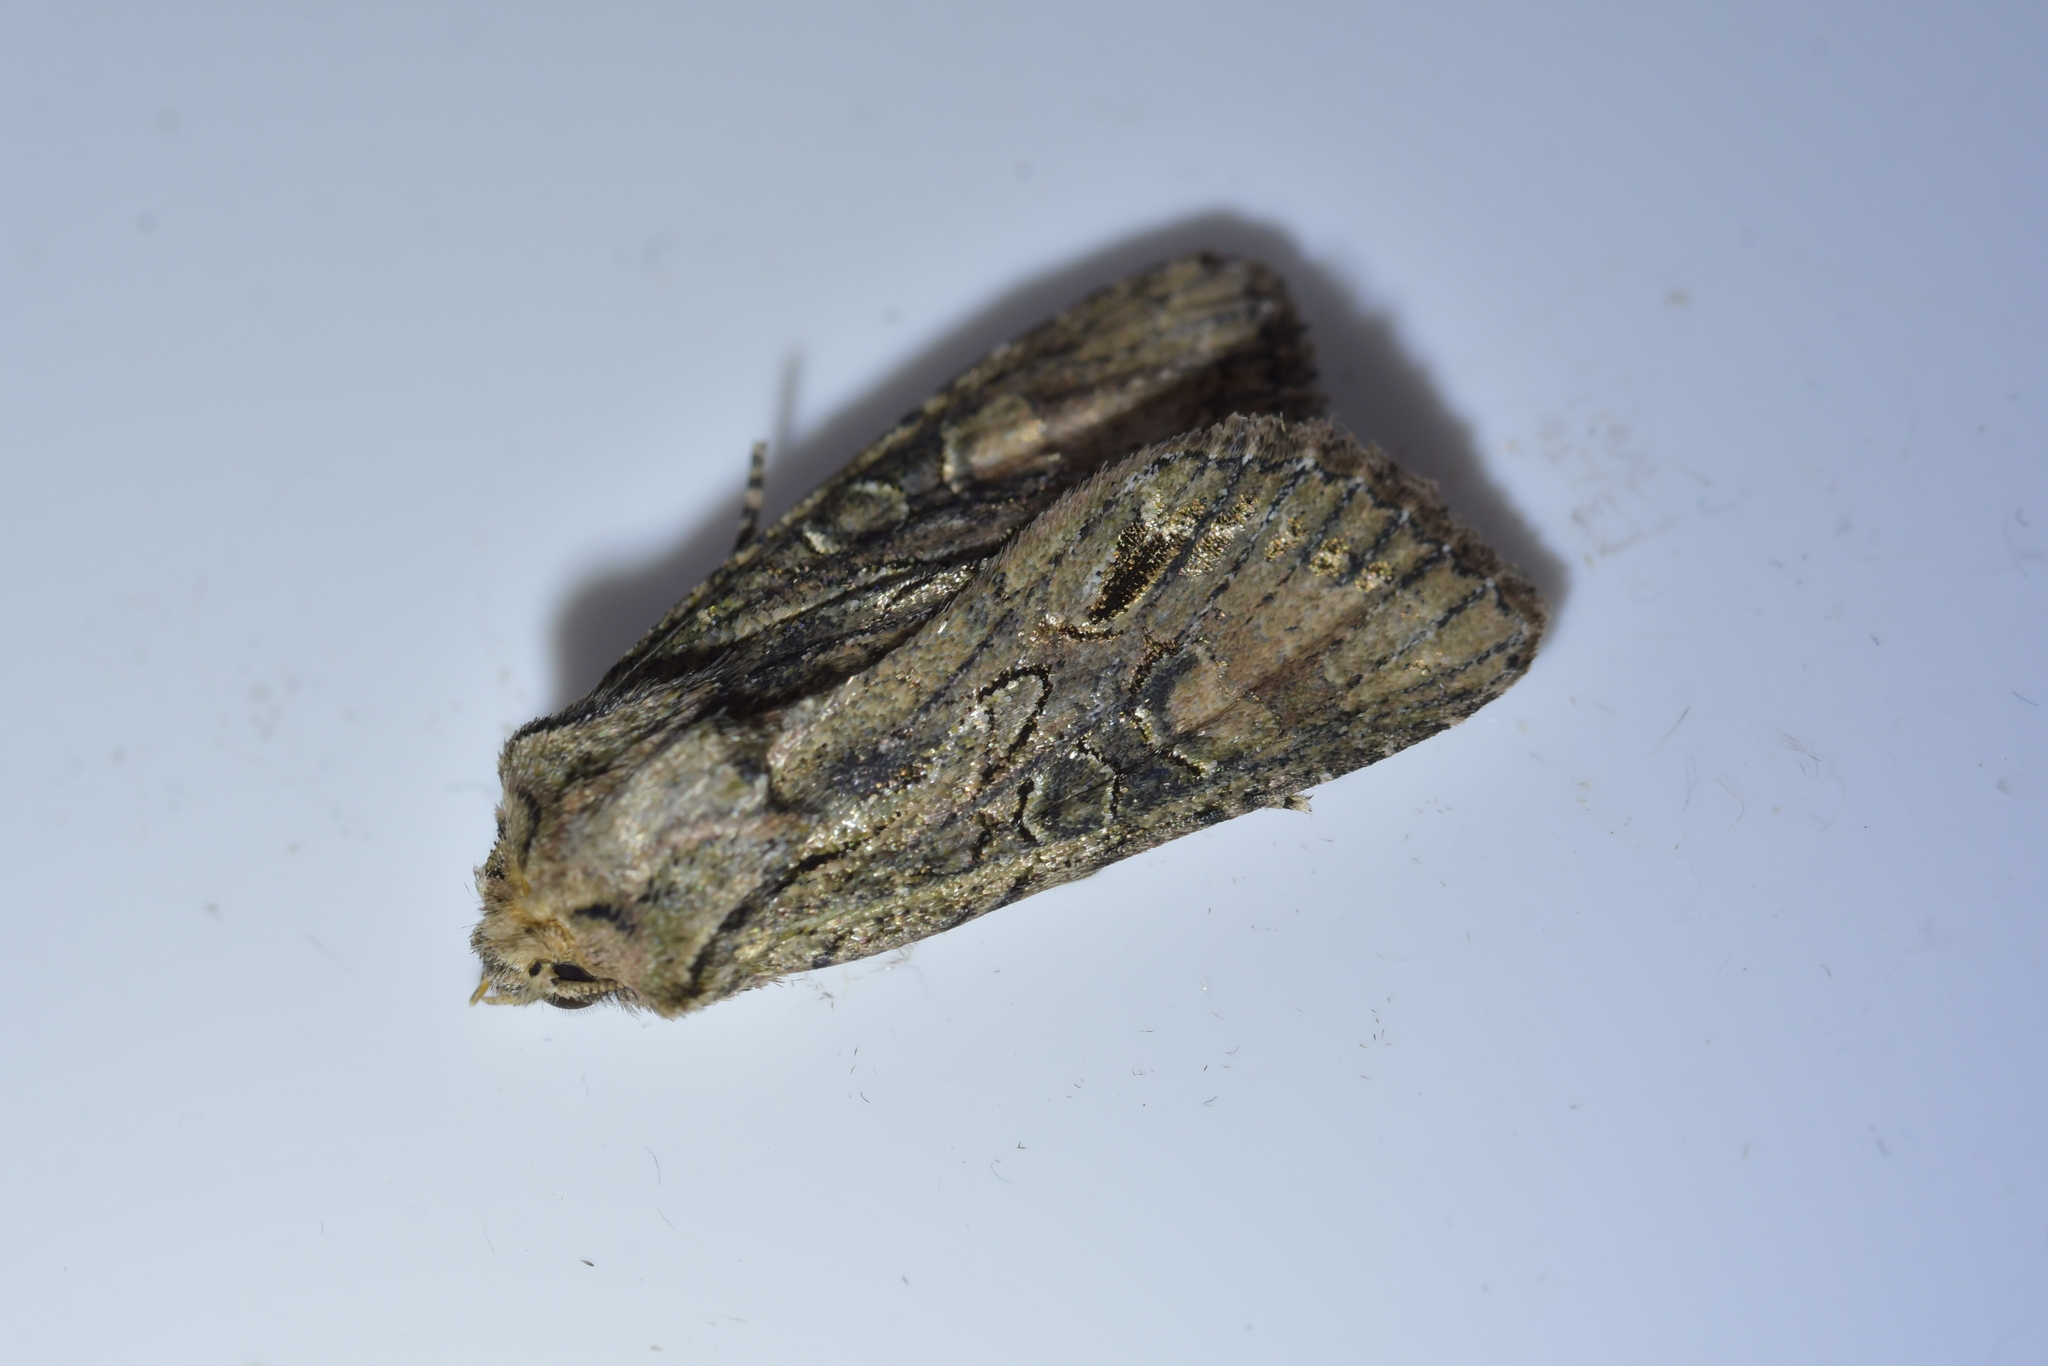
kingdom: Animalia
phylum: Arthropoda
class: Insecta
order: Lepidoptera
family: Noctuidae
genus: Ichneutica
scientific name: Ichneutica mutans
